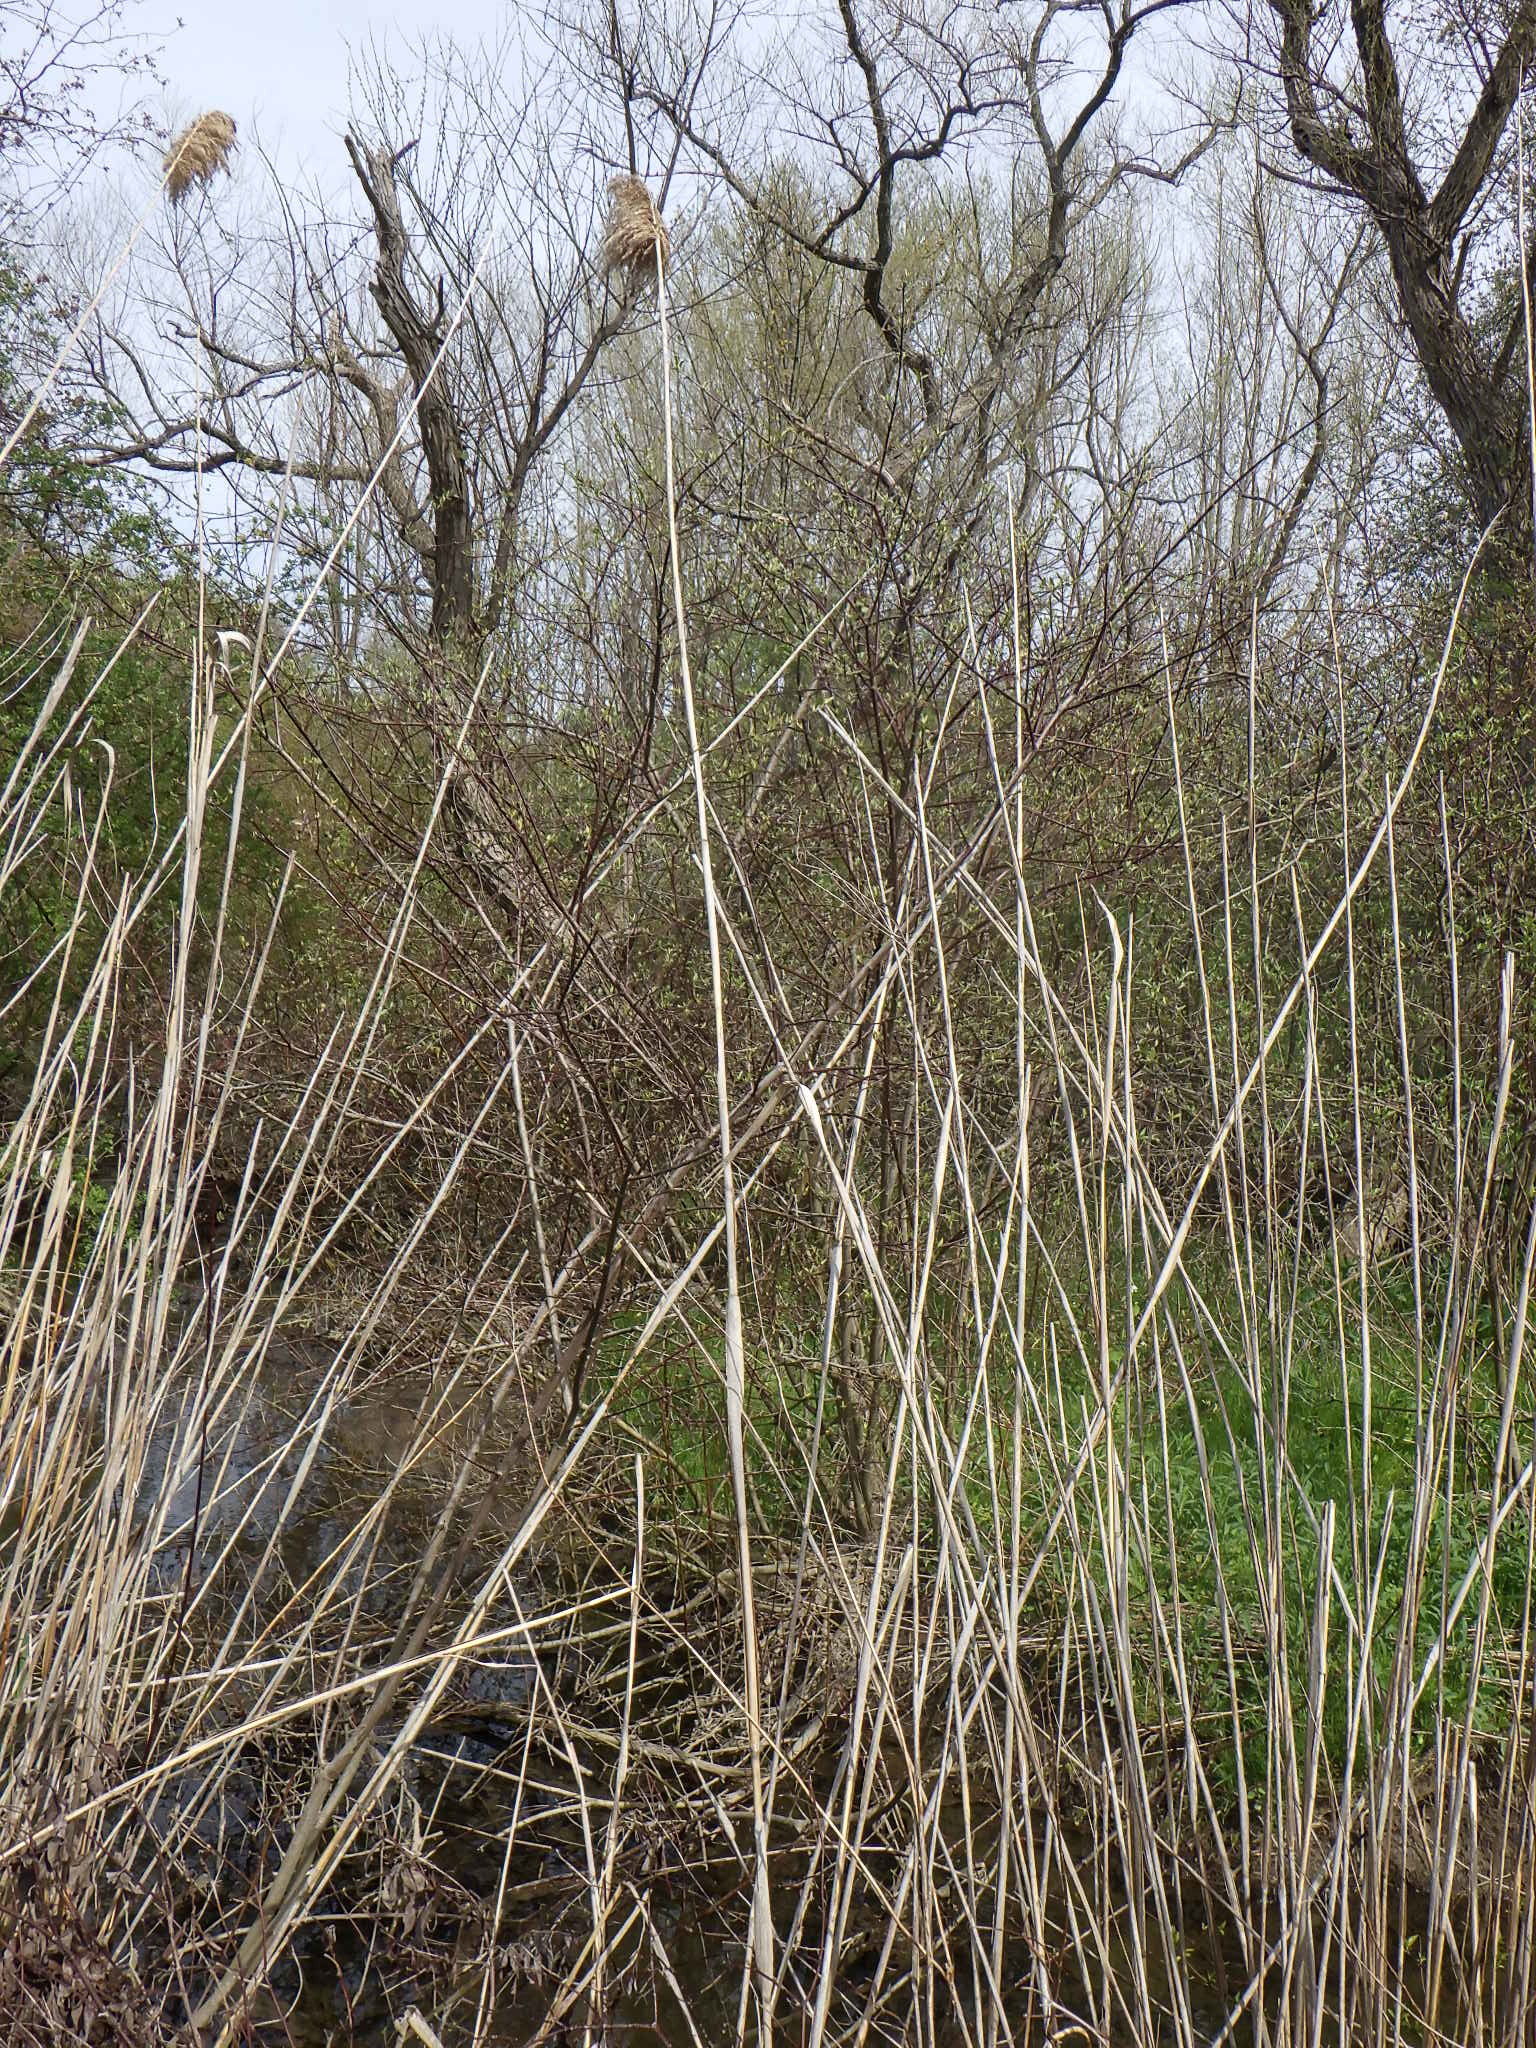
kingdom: Plantae
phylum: Tracheophyta
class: Liliopsida
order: Poales
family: Poaceae
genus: Phragmites
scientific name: Phragmites australis
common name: Common reed
